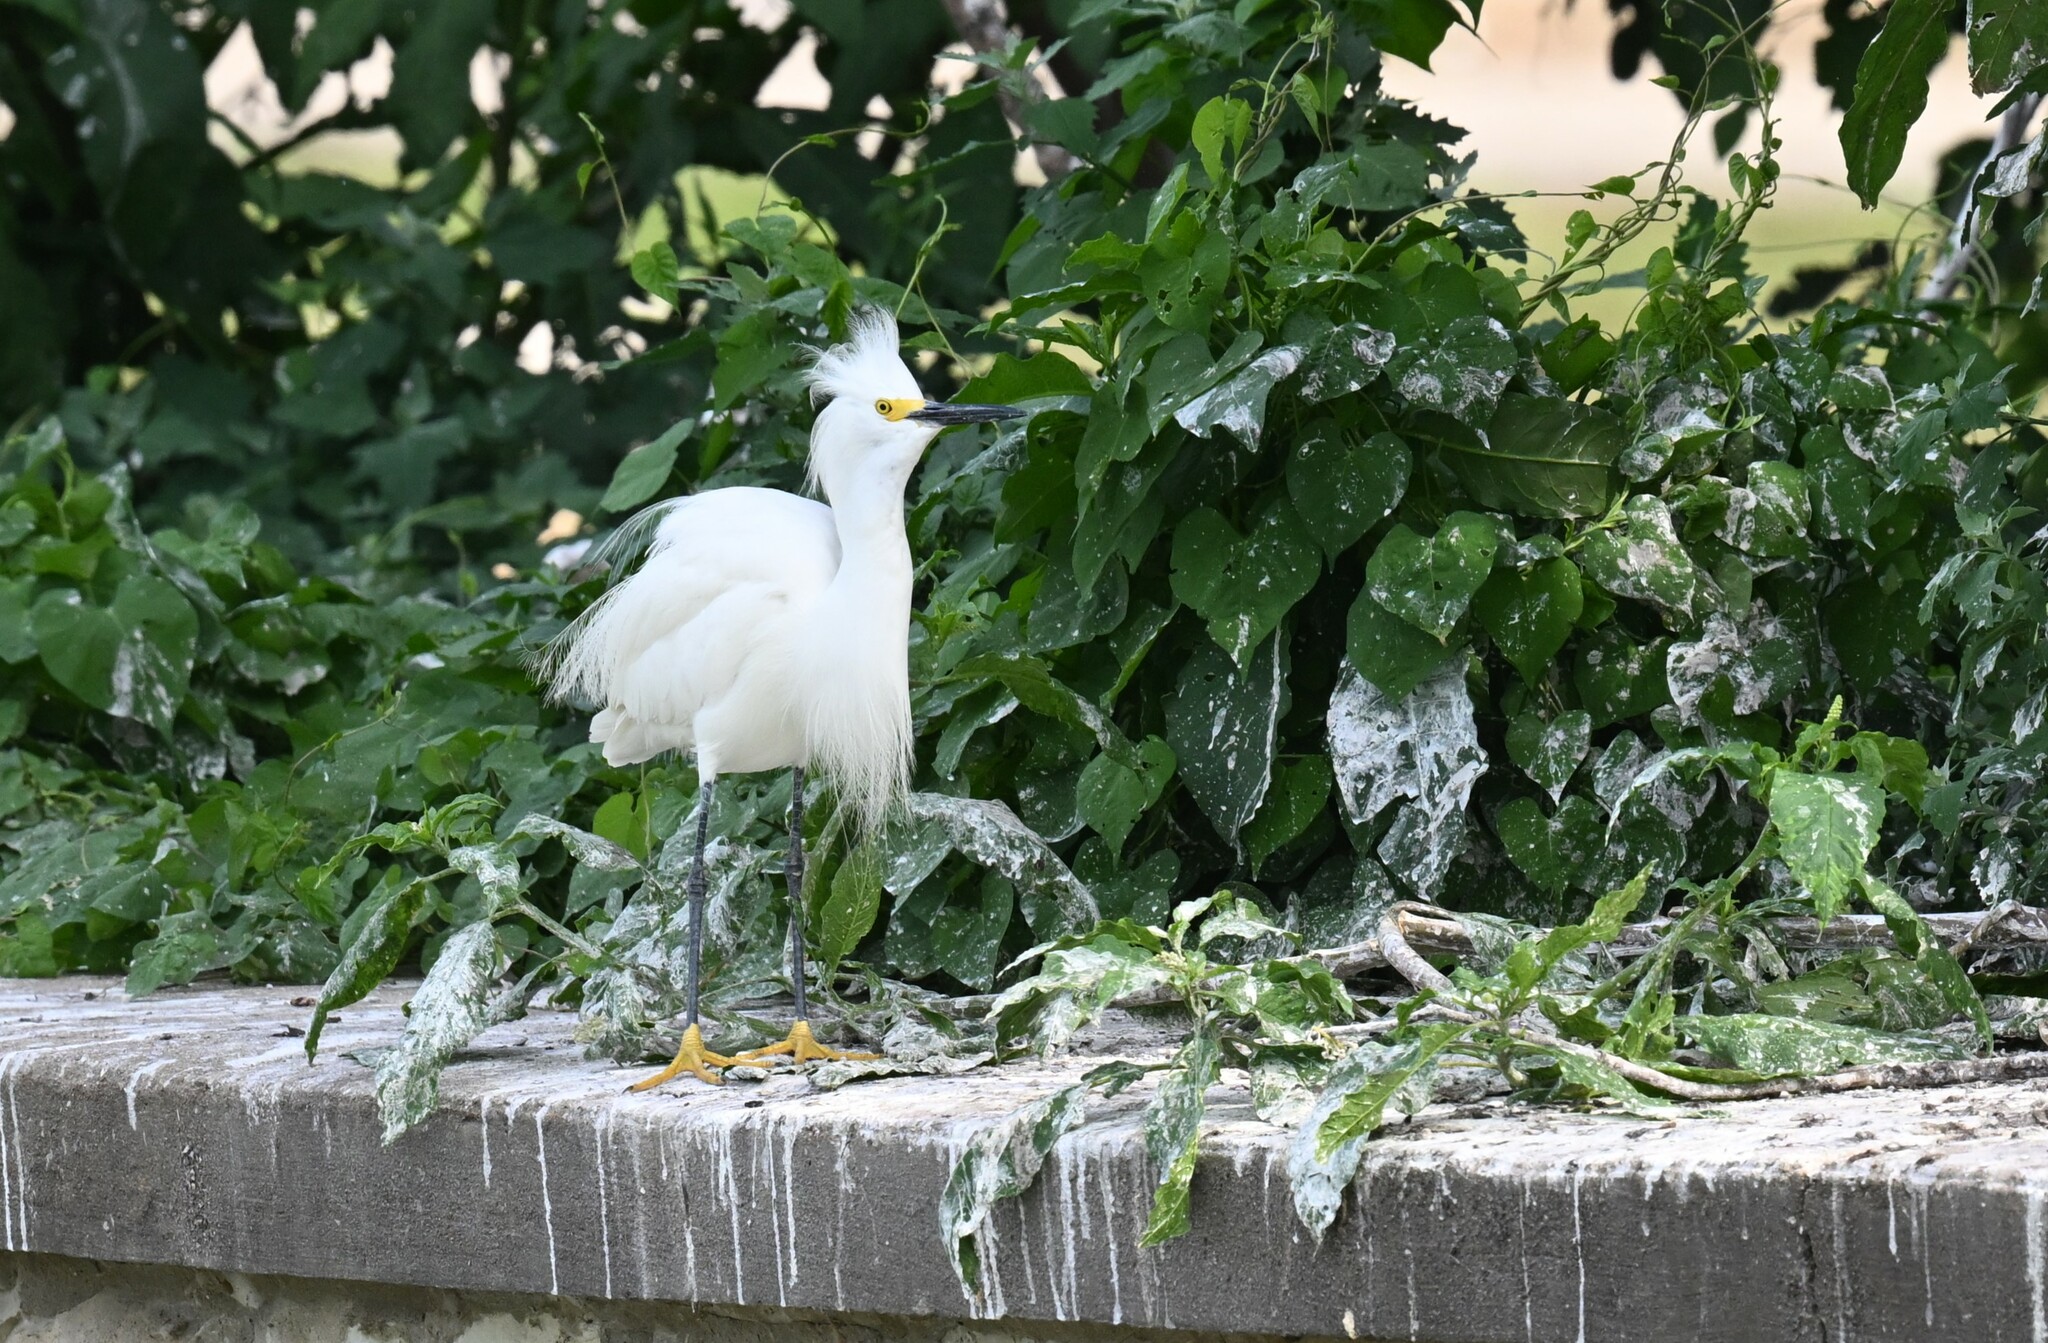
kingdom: Animalia
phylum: Chordata
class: Aves
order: Pelecaniformes
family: Ardeidae
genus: Egretta
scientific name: Egretta thula
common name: Snowy egret
